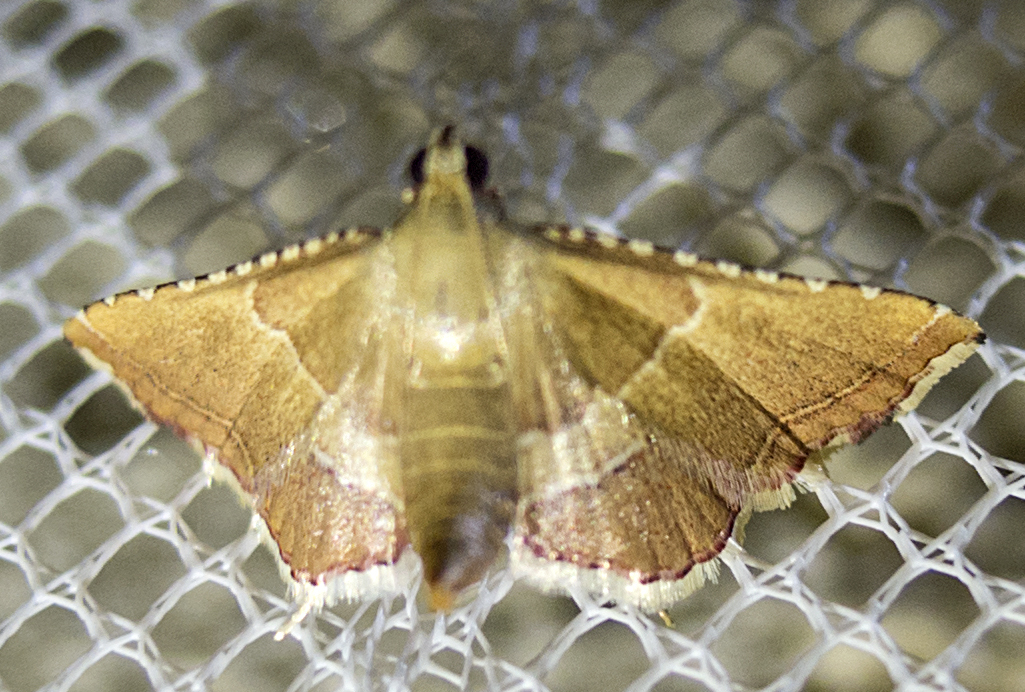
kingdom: Animalia
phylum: Arthropoda
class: Insecta
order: Lepidoptera
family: Pyralidae
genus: Endotricha
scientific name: Endotricha flammealis
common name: Rosy tabby
